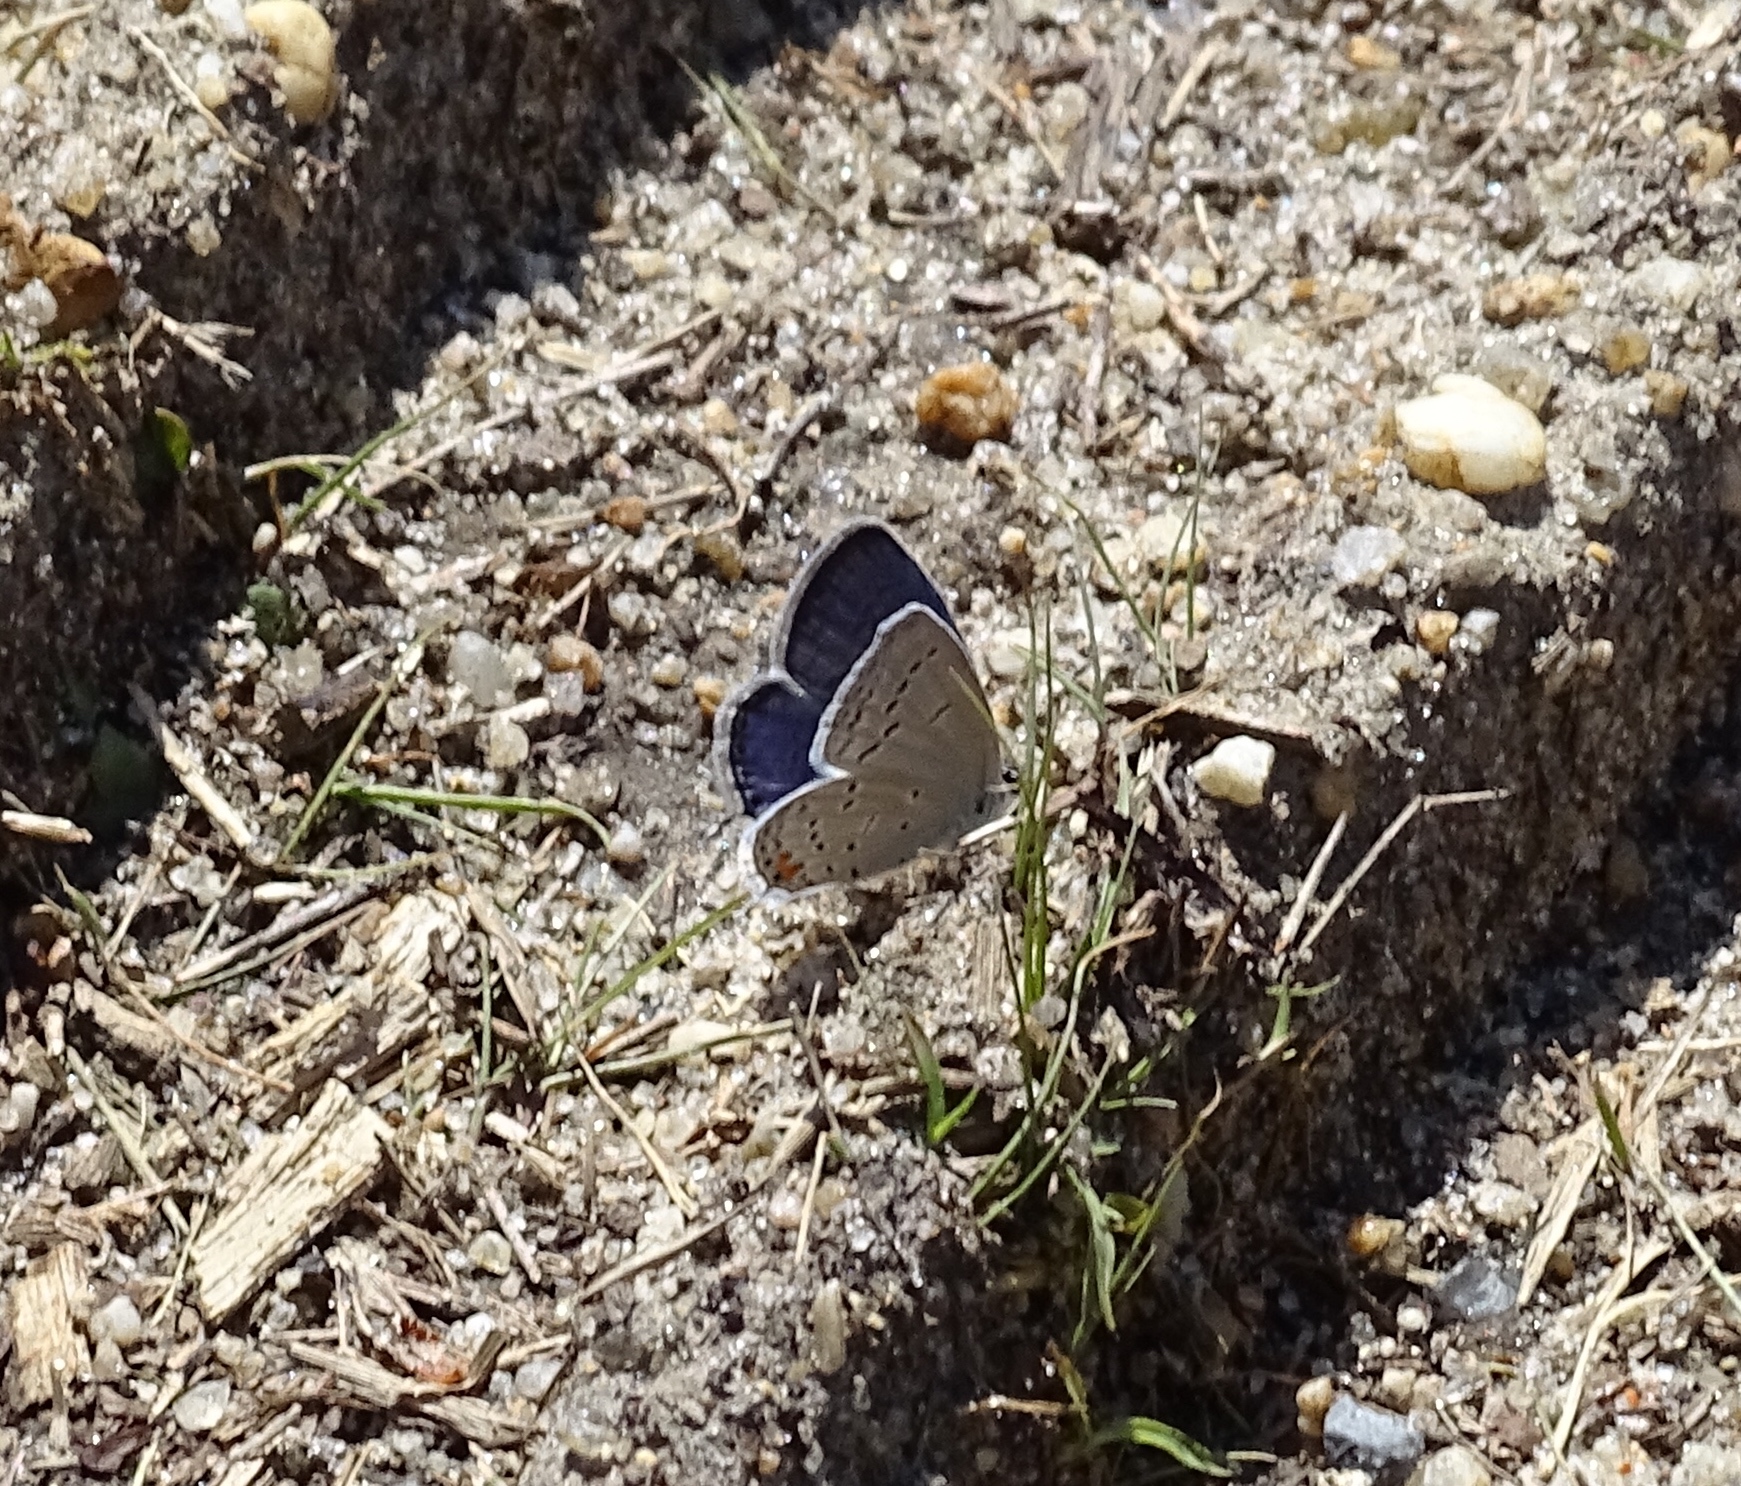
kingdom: Animalia
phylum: Arthropoda
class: Insecta
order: Lepidoptera
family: Lycaenidae
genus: Elkalyce
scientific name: Elkalyce comyntas
